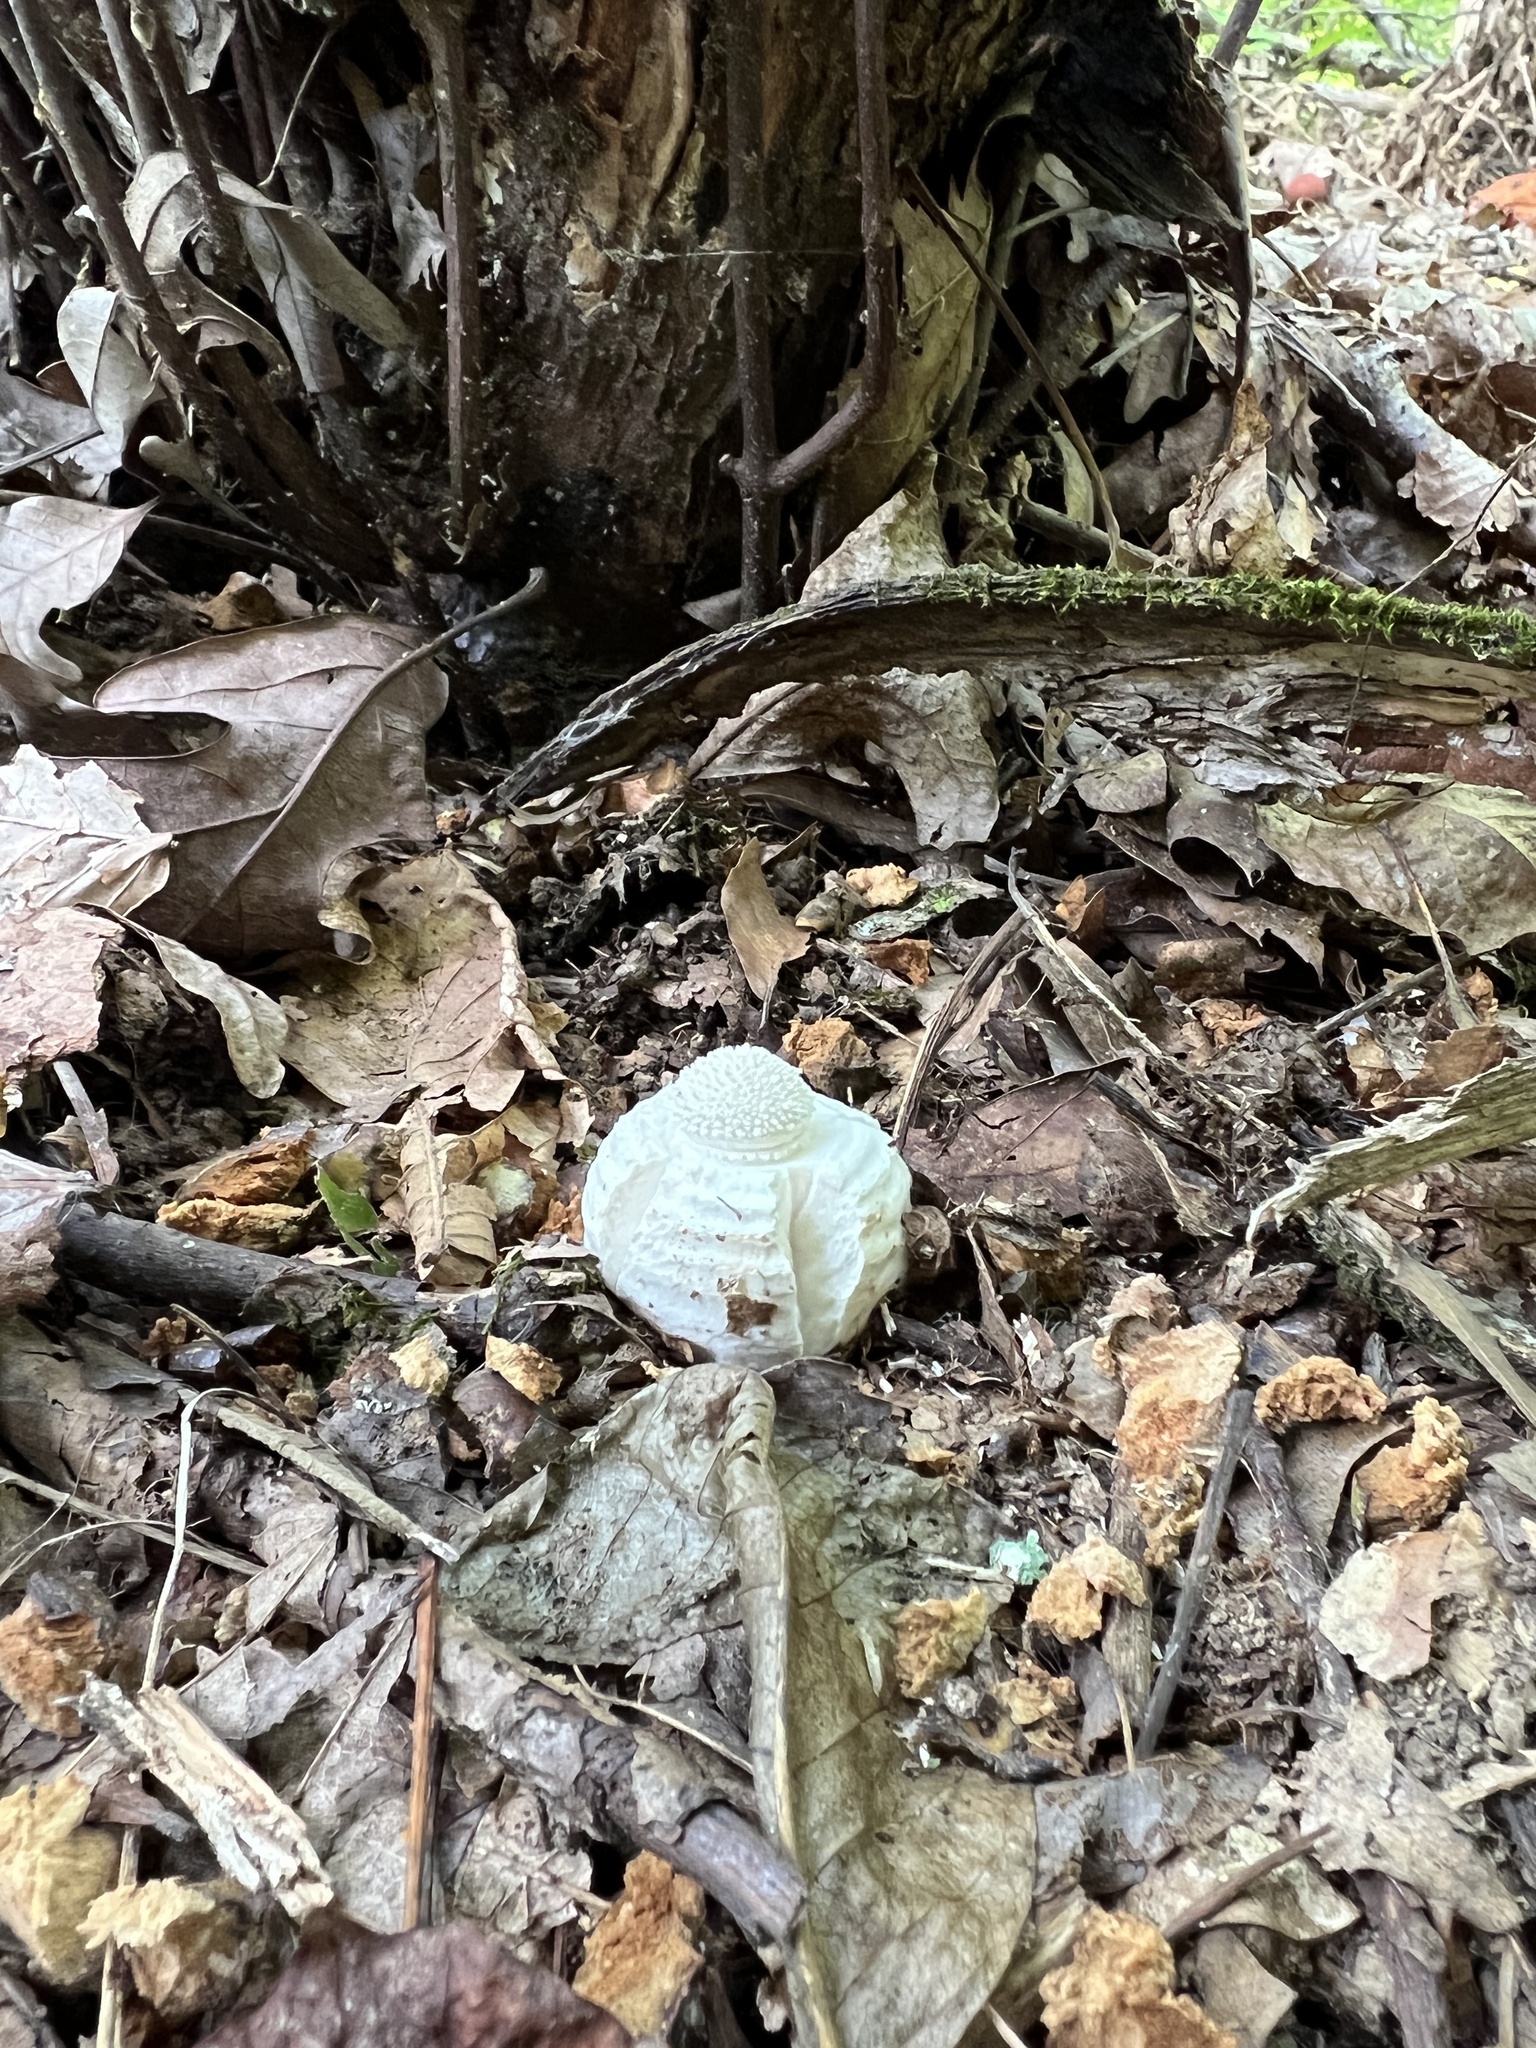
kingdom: Fungi
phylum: Basidiomycota
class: Agaricomycetes
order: Agaricales
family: Amanitaceae
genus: Amanita
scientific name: Amanita cokeri
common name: Coker's amanita
